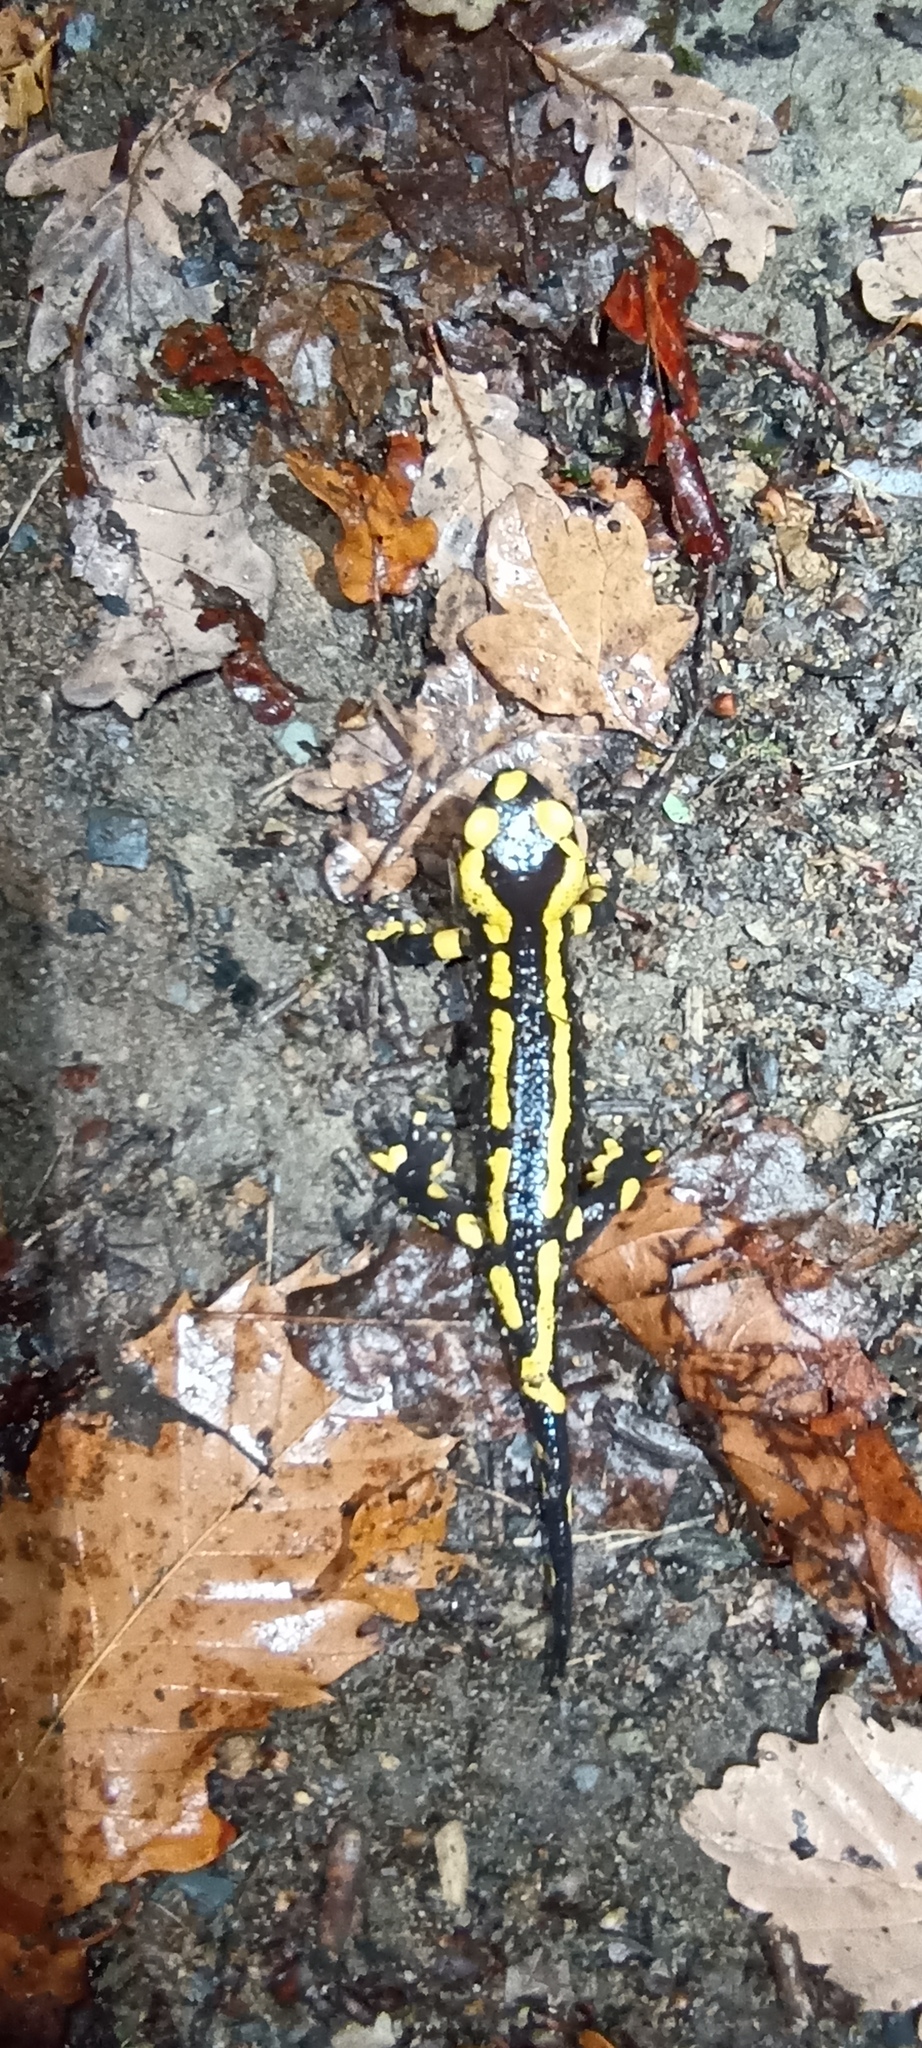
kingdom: Animalia
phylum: Chordata
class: Amphibia
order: Caudata
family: Salamandridae
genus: Salamandra
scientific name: Salamandra salamandra
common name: Fire salamander
